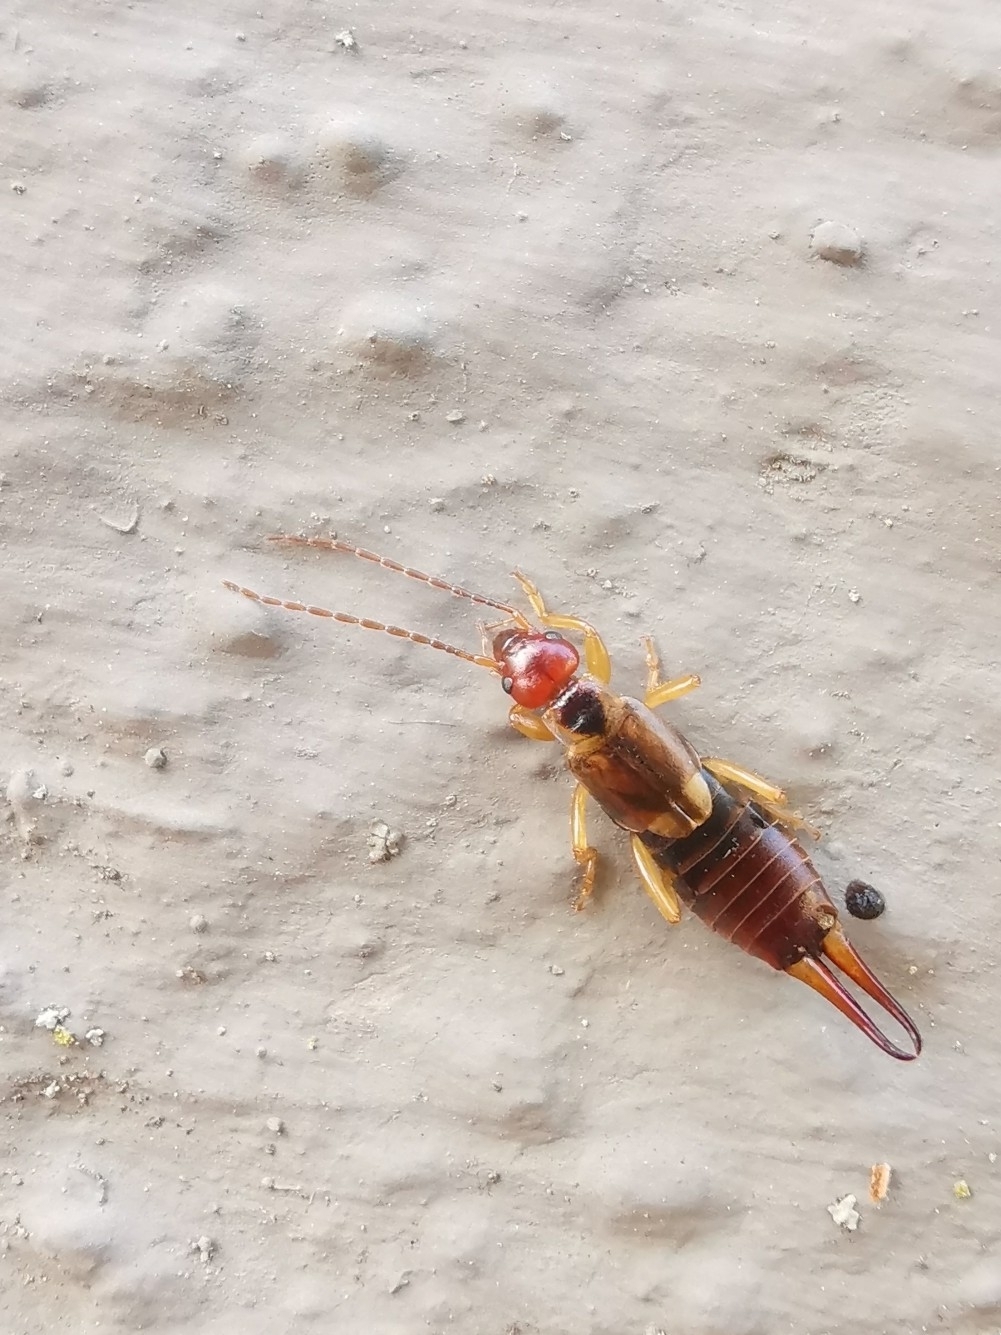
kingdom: Animalia
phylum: Arthropoda
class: Insecta
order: Dermaptera
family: Forficulidae
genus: Forficula
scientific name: Forficula
